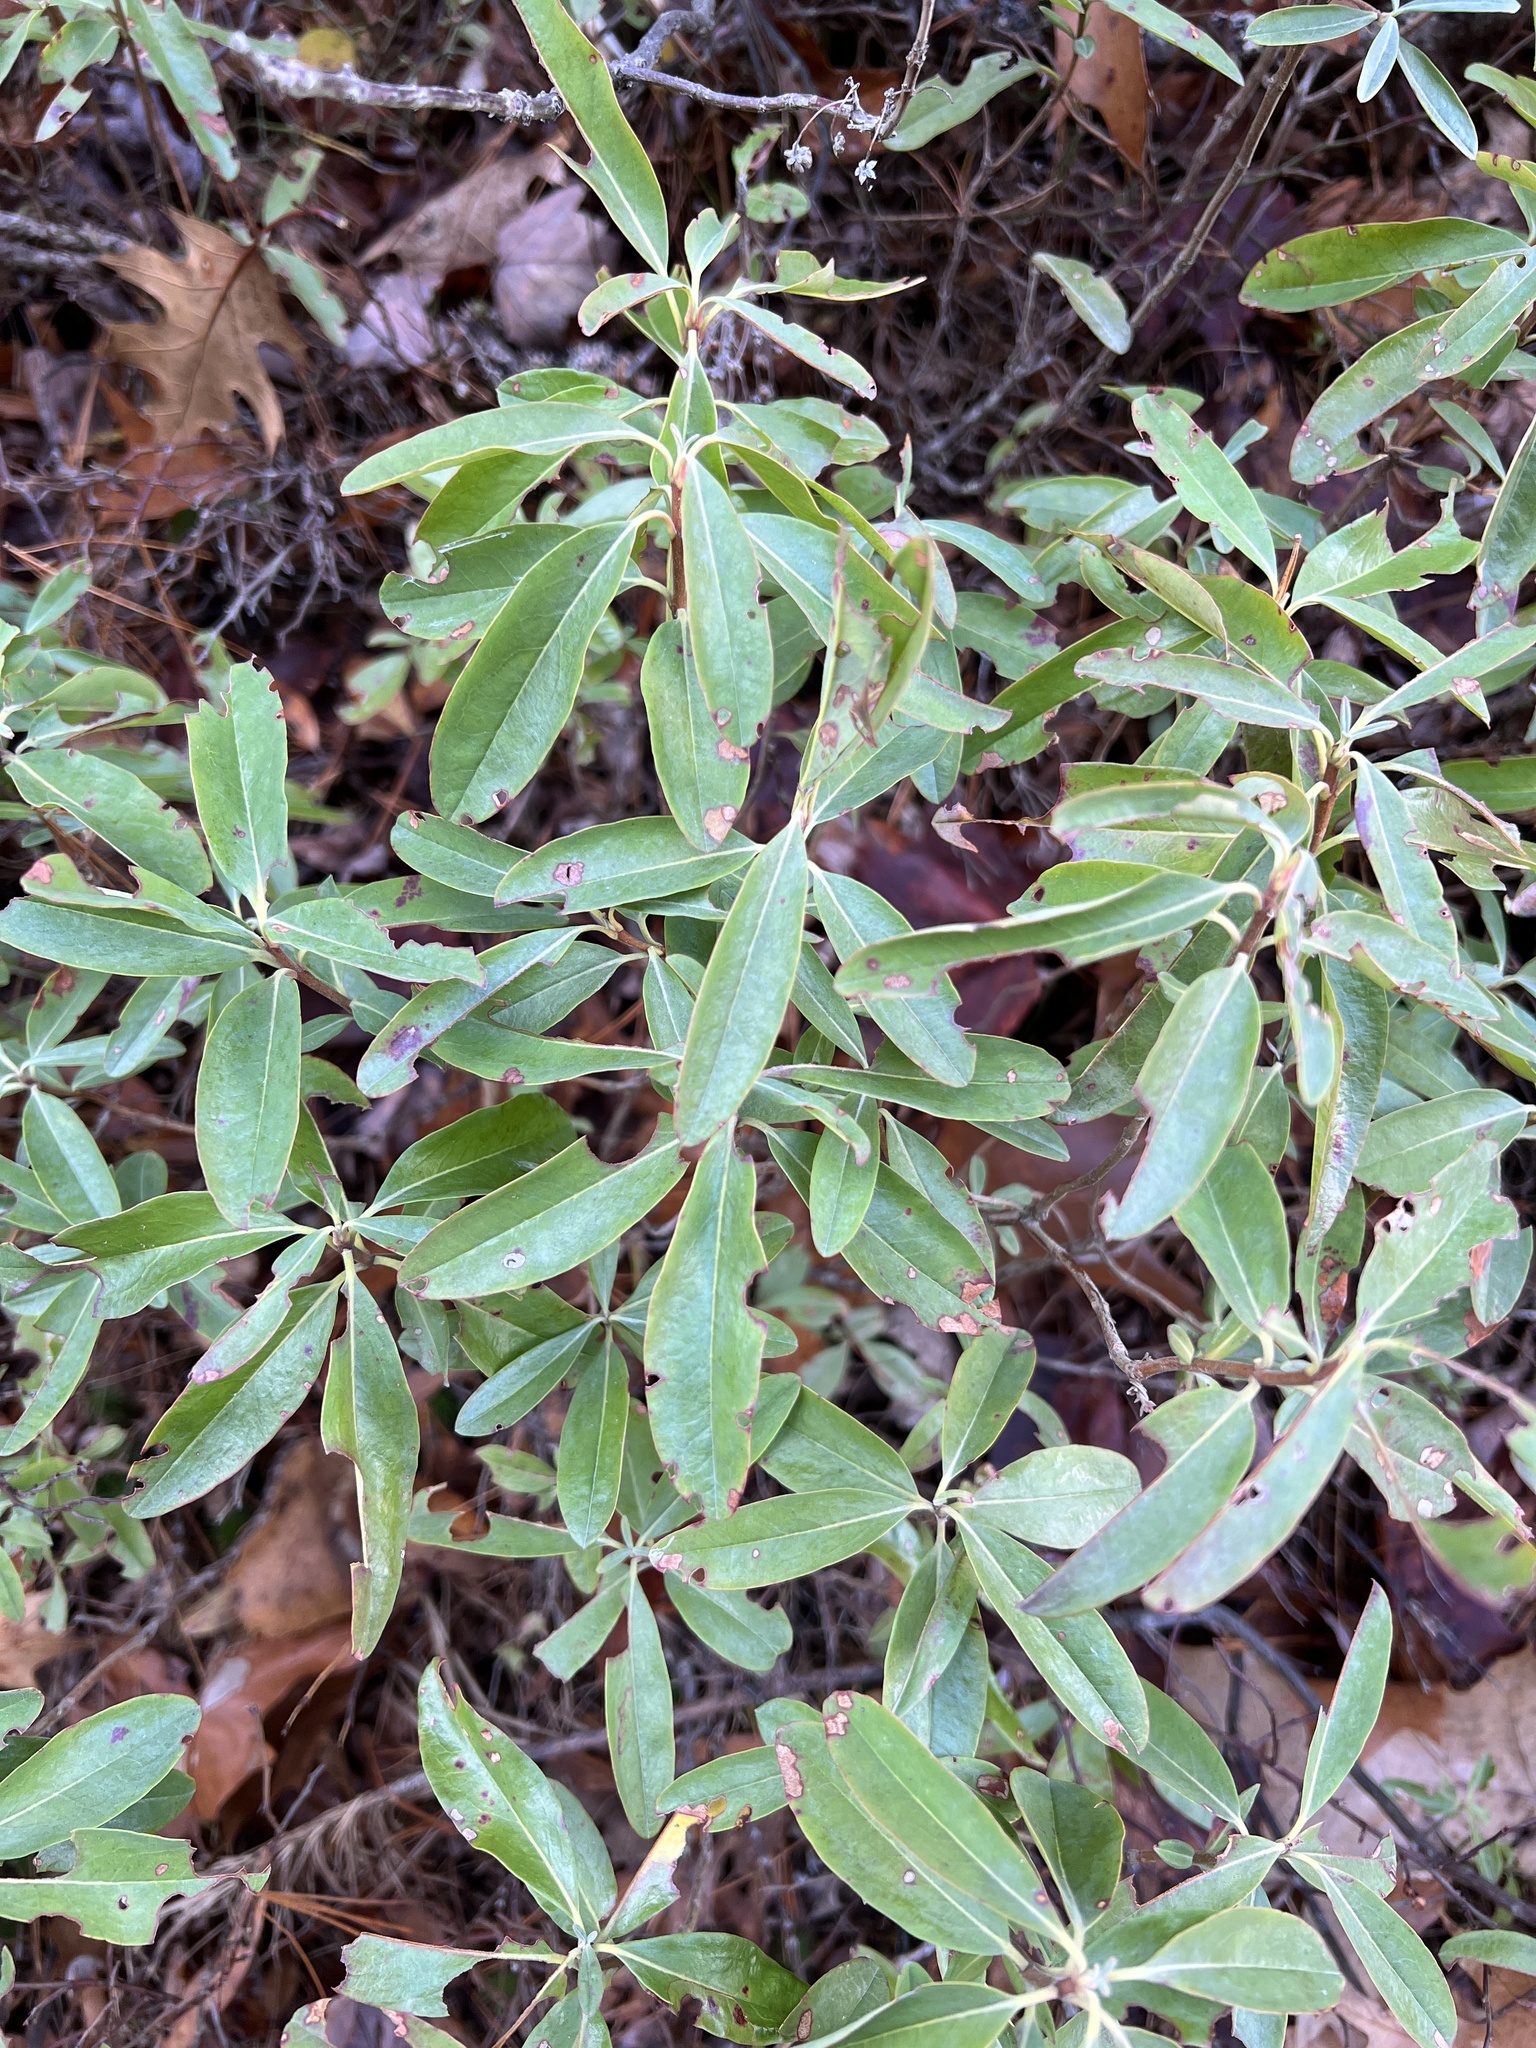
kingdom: Plantae
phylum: Tracheophyta
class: Magnoliopsida
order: Ericales
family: Ericaceae
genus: Kalmia
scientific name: Kalmia angustifolia
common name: Sheep-laurel
